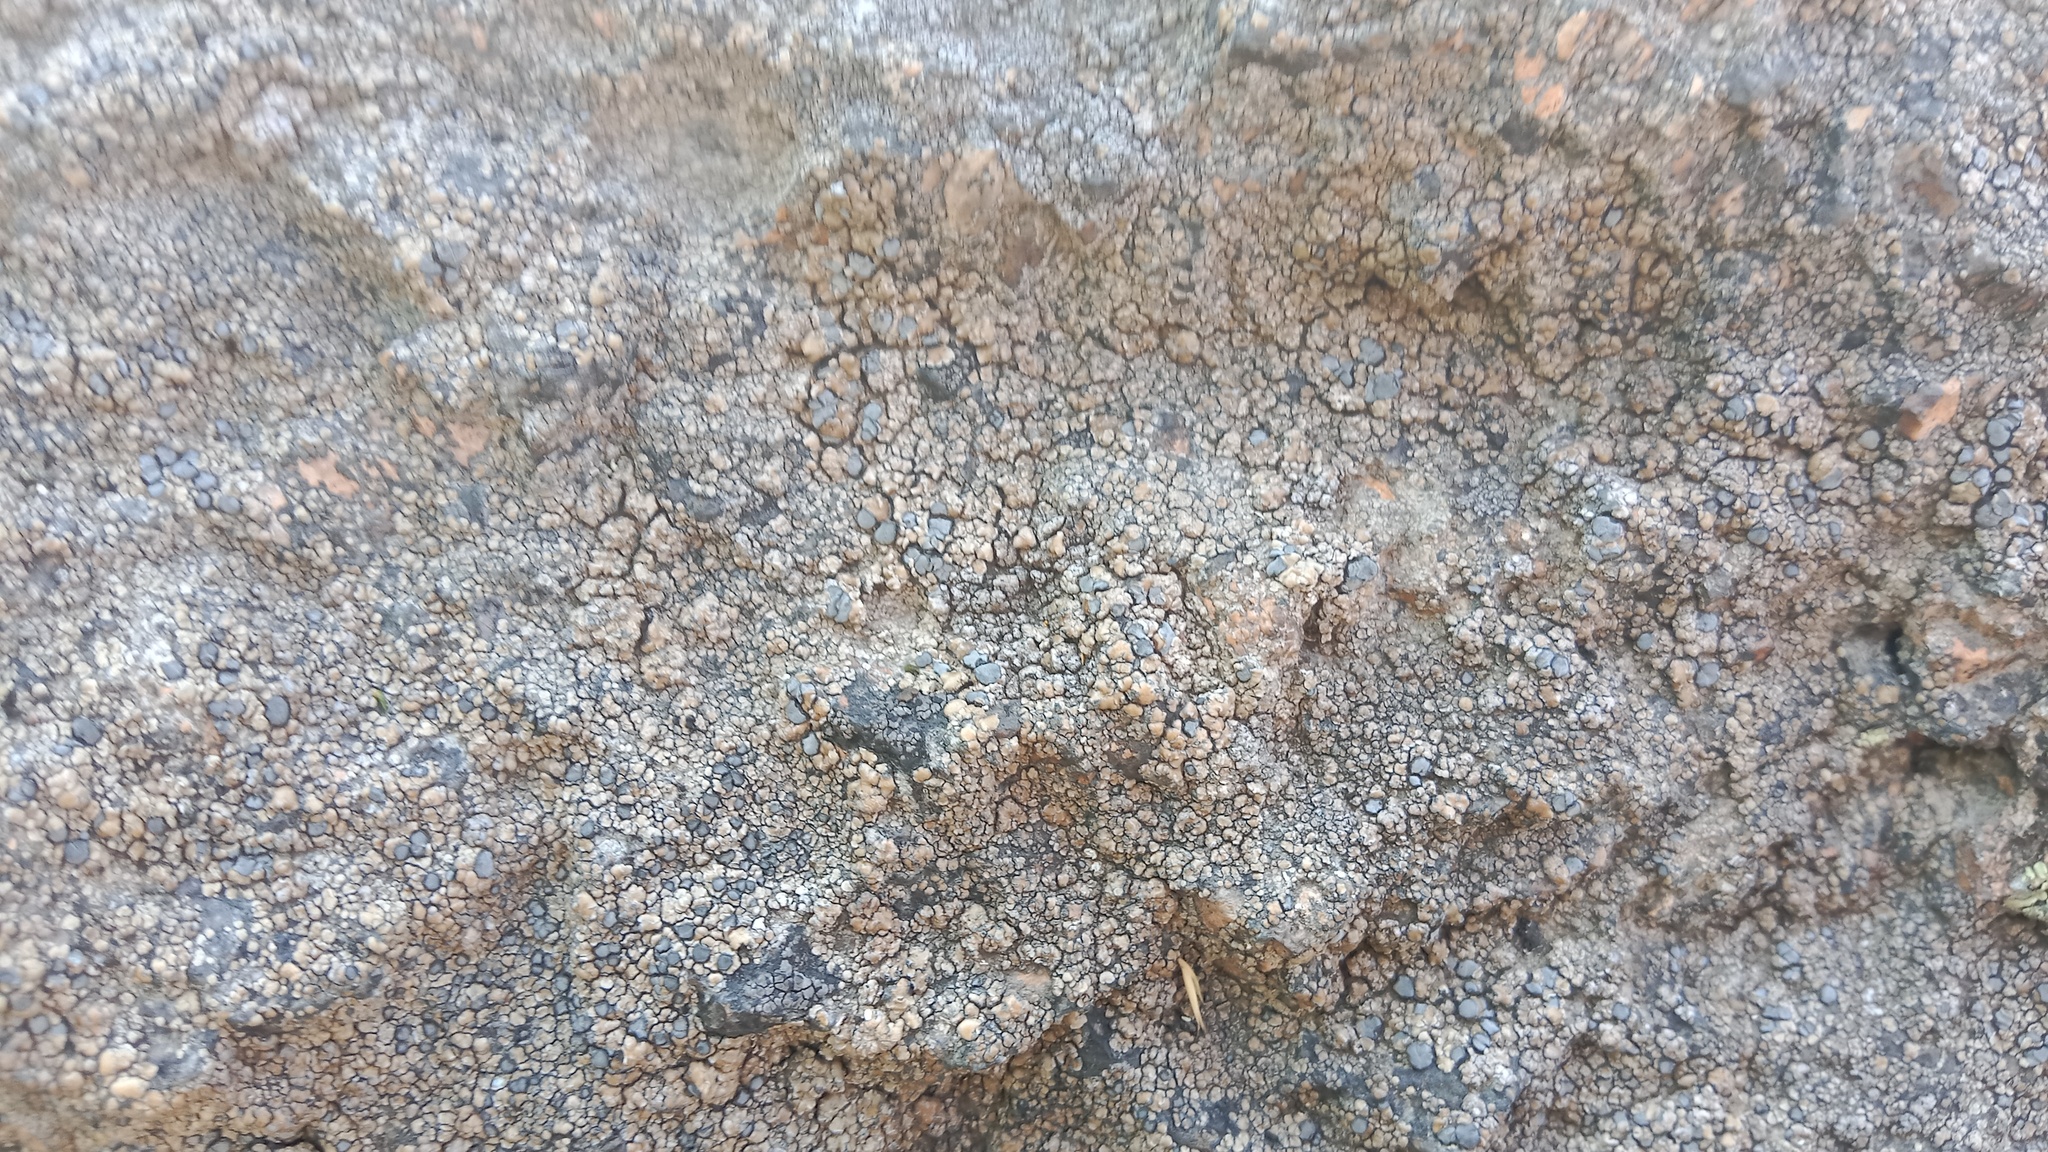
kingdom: Fungi
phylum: Ascomycota
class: Lecanoromycetes
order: Lecideales
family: Lecideaceae
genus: Lecidea
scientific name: Lecidea fuscoatra
